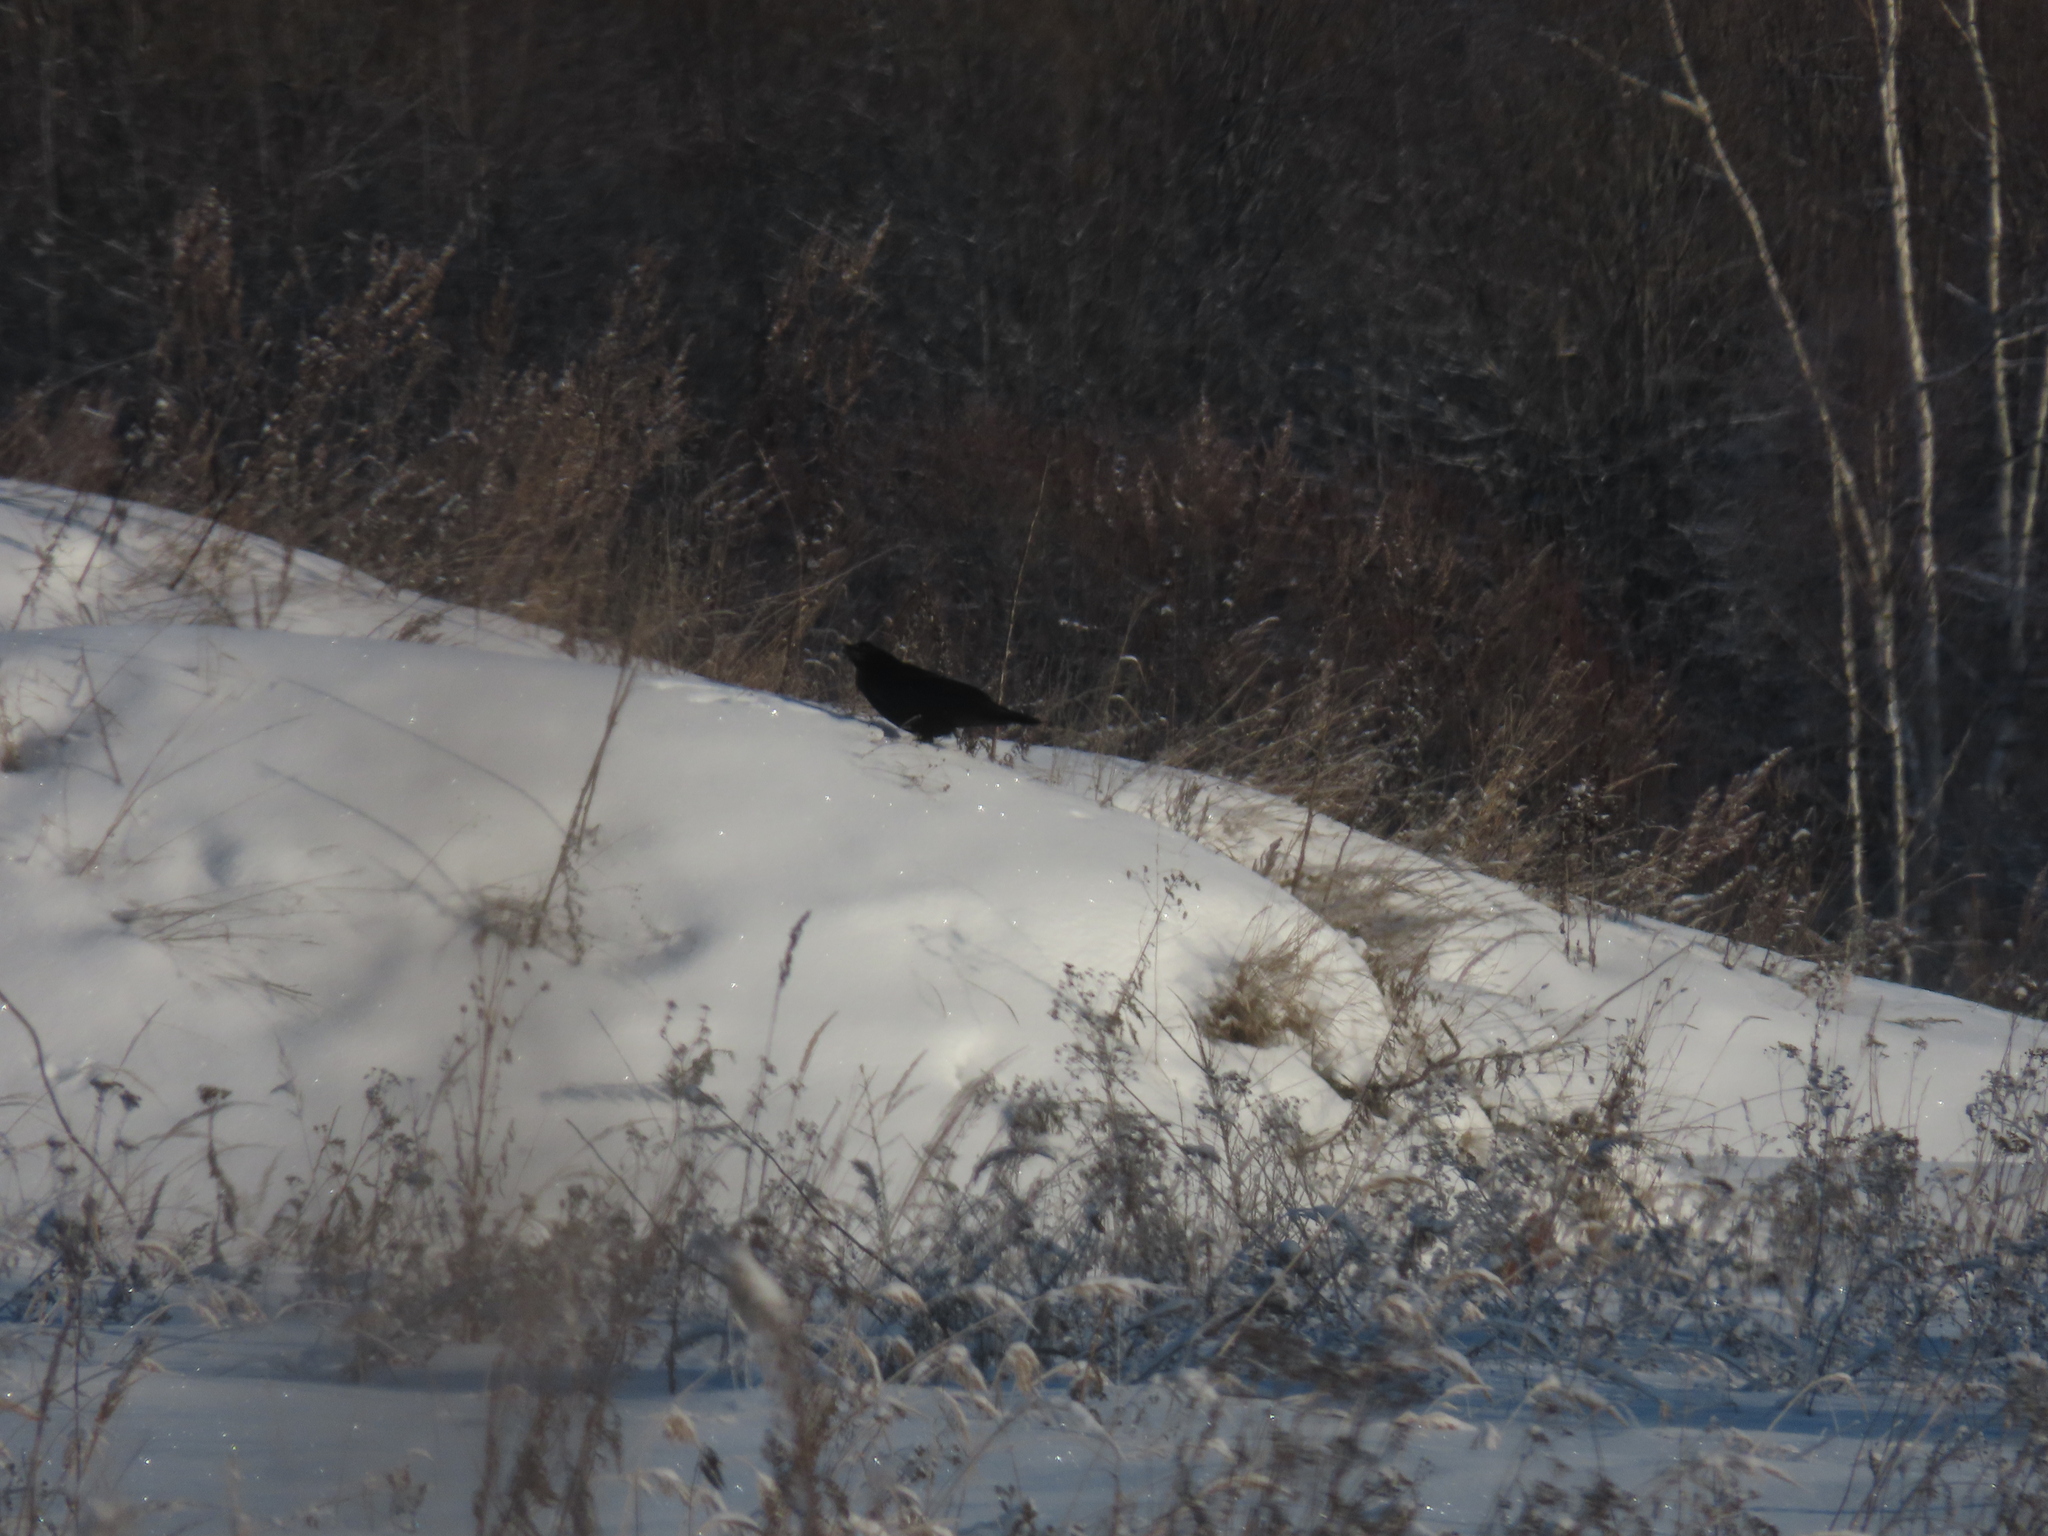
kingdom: Animalia
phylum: Chordata
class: Aves
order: Passeriformes
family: Corvidae
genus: Corvus
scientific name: Corvus corax
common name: Common raven
